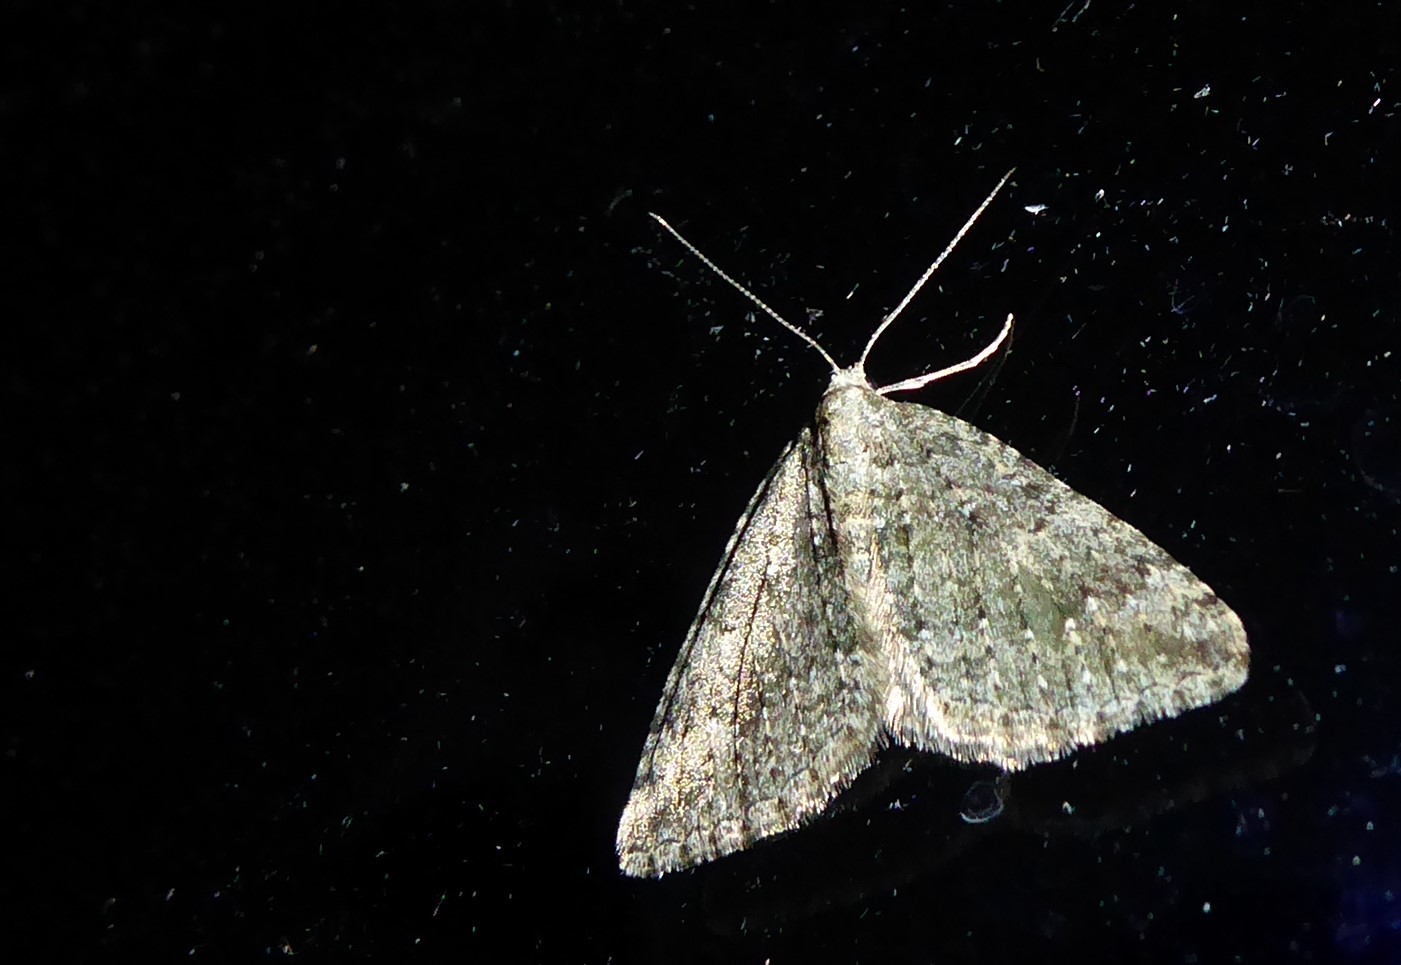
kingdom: Animalia
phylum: Arthropoda
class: Insecta
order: Lepidoptera
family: Geometridae
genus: Helastia
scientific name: Helastia corcularia
